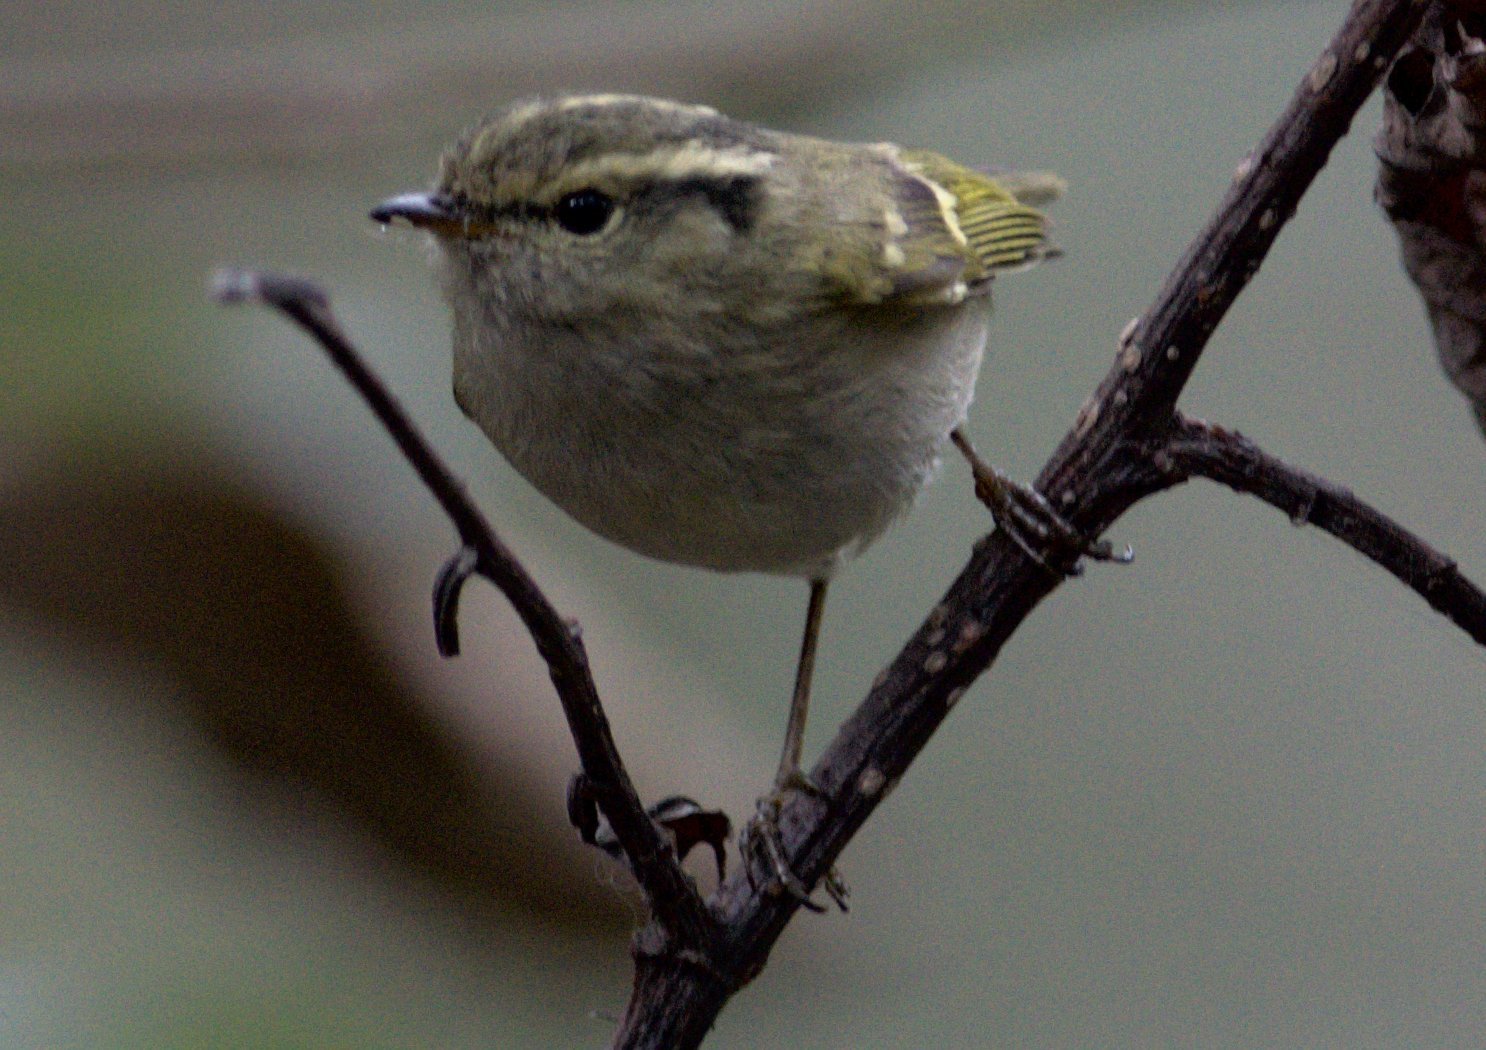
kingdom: Animalia
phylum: Chordata
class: Aves
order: Passeriformes
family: Phylloscopidae
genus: Phylloscopus
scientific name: Phylloscopus chloronotus
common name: Lemon-rumped warbler
